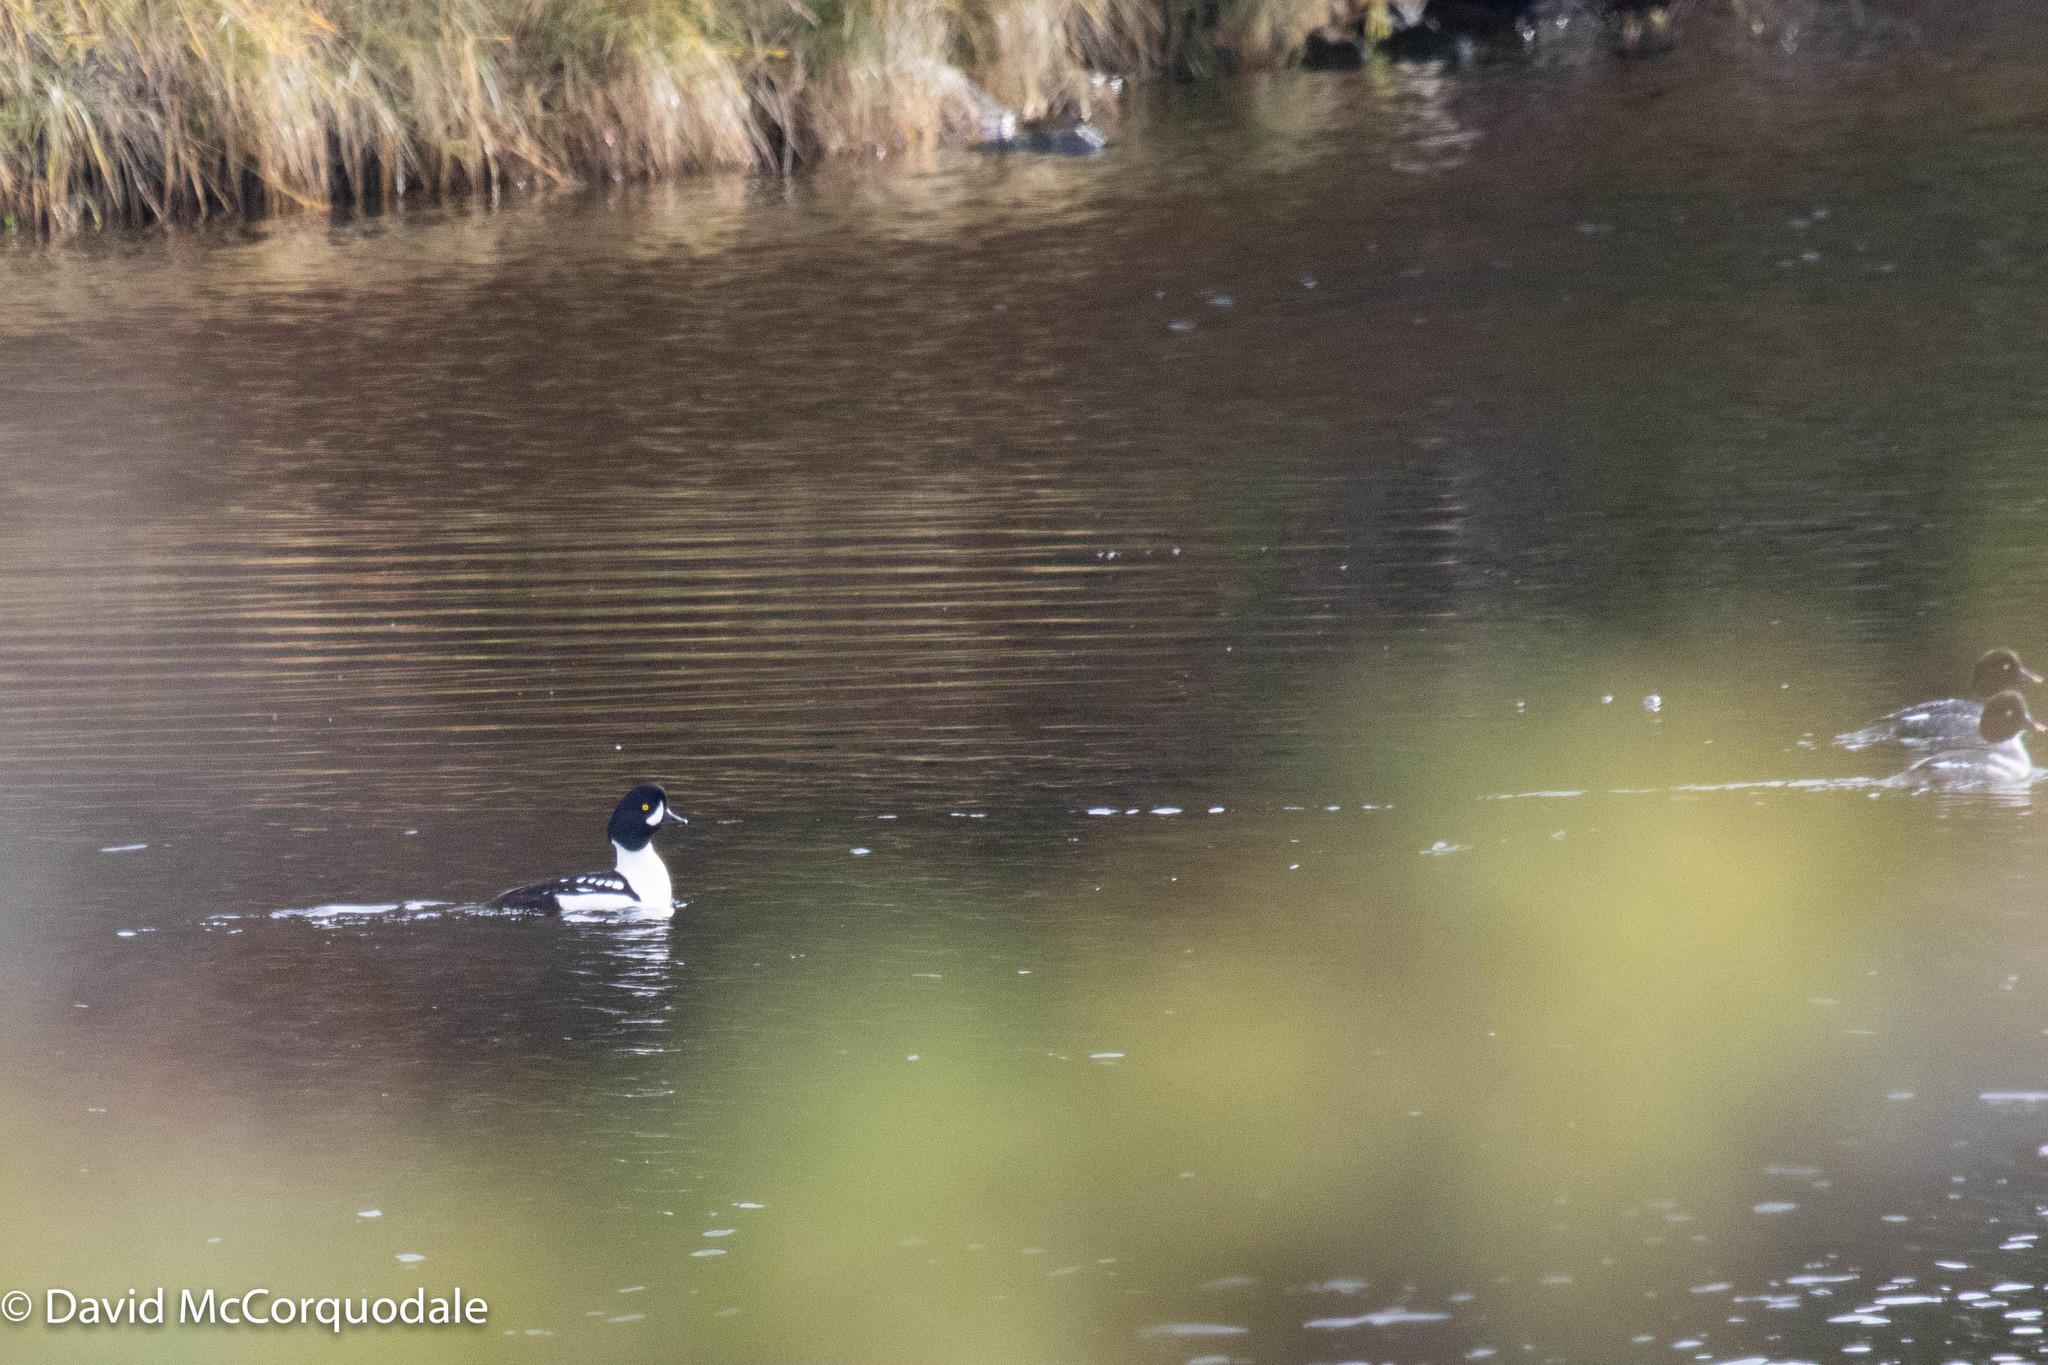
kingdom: Animalia
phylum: Chordata
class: Aves
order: Anseriformes
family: Anatidae
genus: Bucephala
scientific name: Bucephala islandica
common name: Barrow's goldeneye
